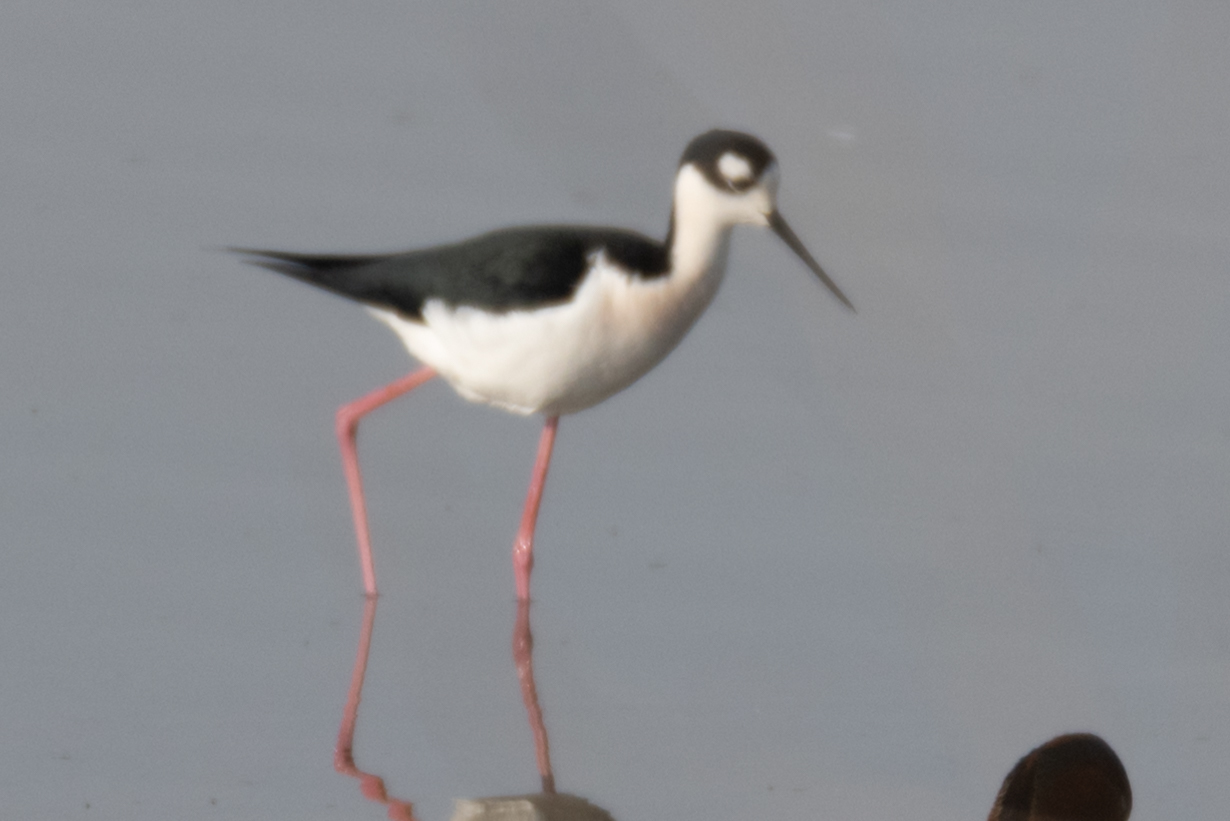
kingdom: Animalia
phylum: Chordata
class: Aves
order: Charadriiformes
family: Recurvirostridae
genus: Himantopus
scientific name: Himantopus mexicanus
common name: Black-necked stilt
